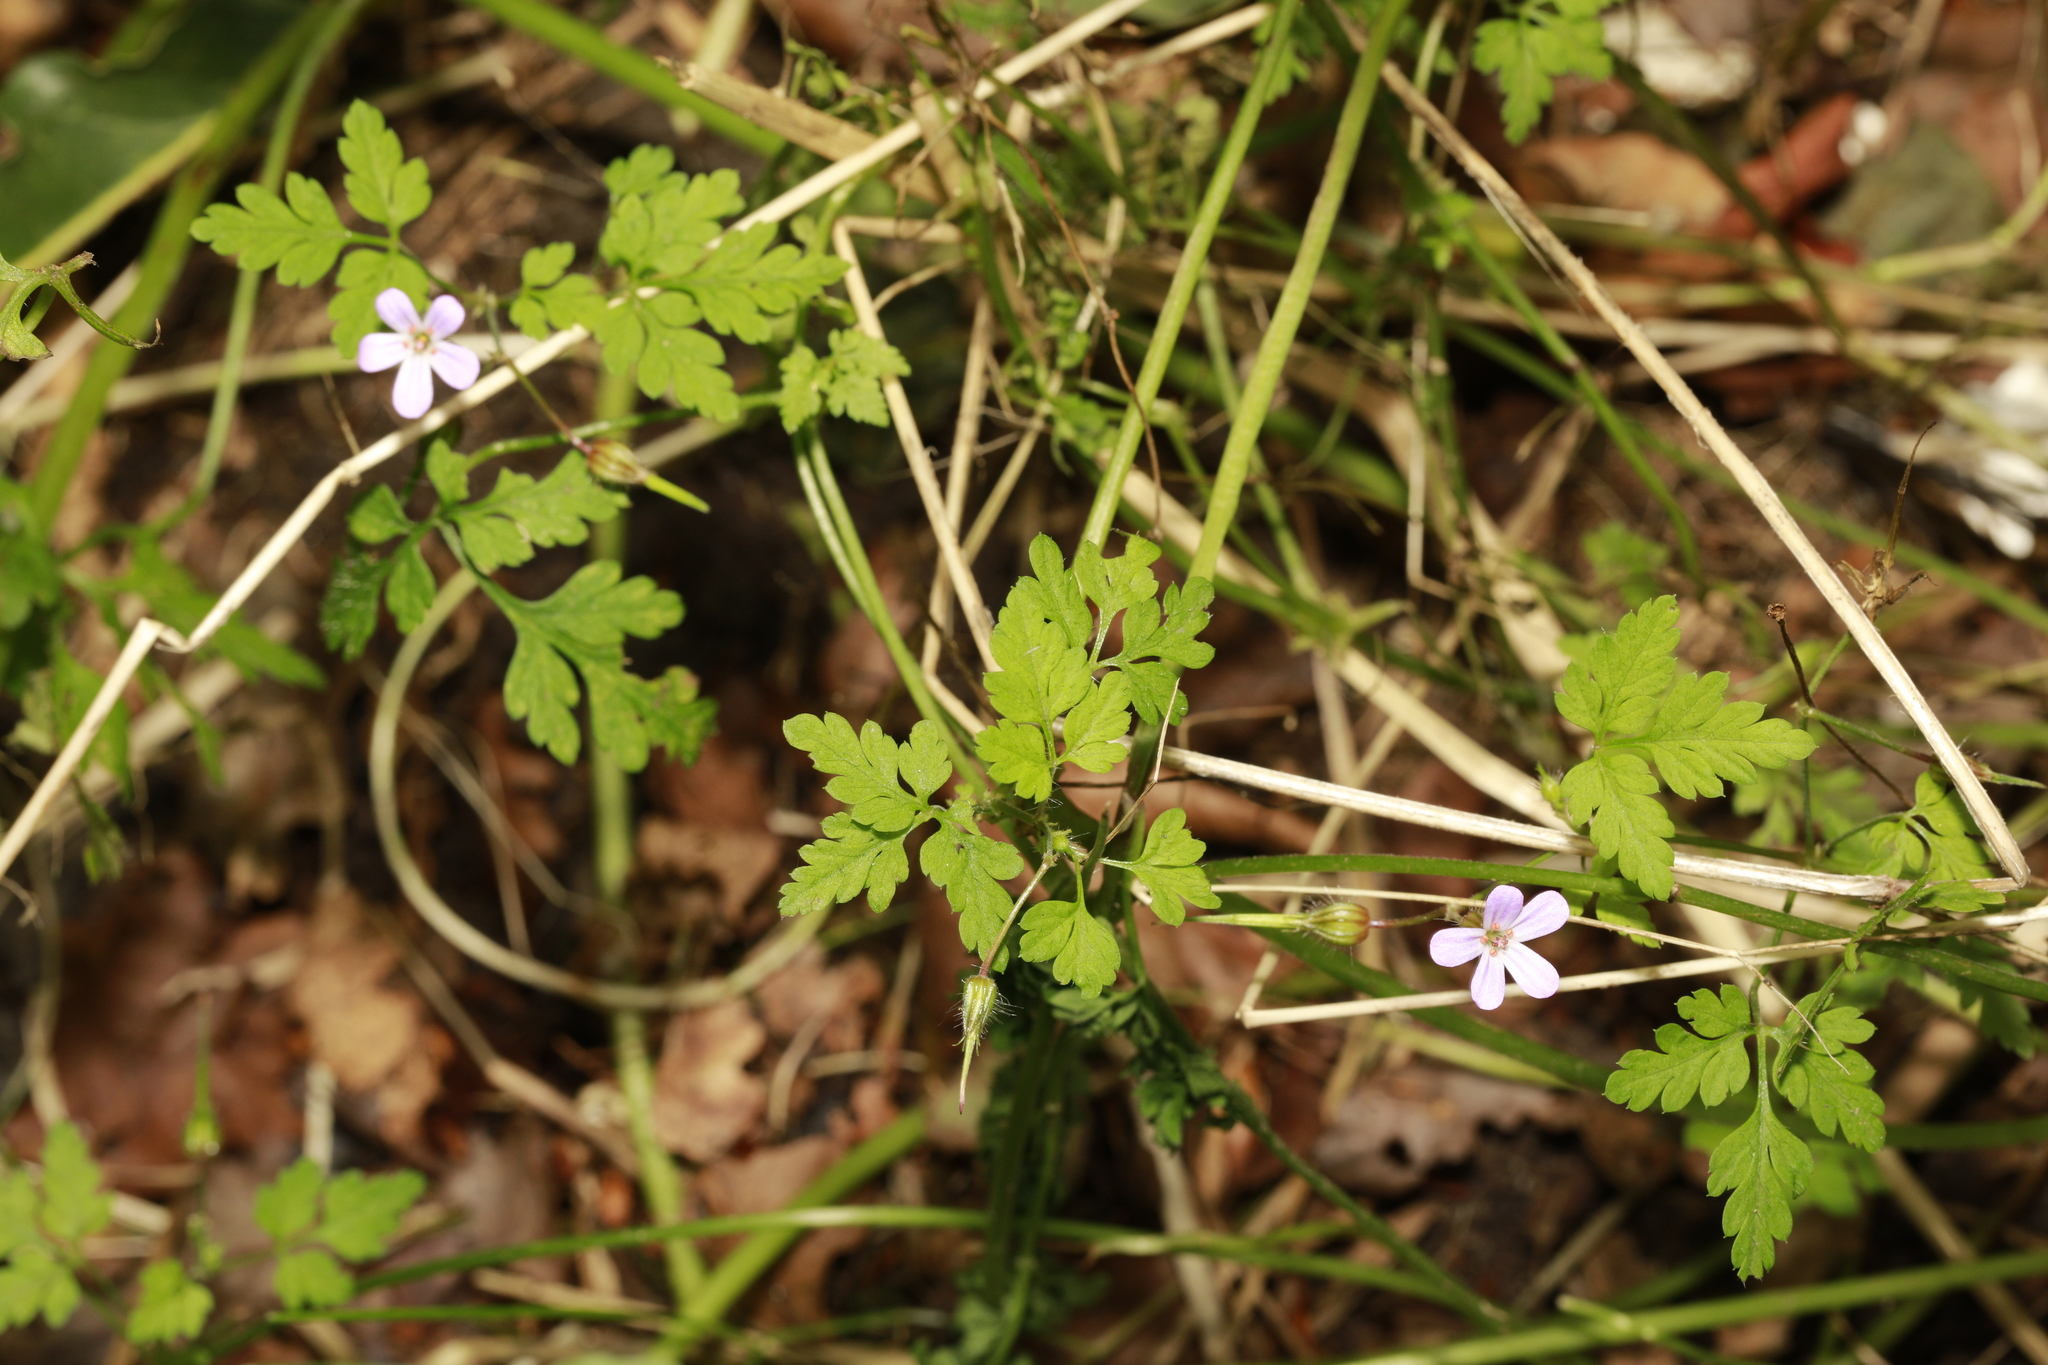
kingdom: Plantae
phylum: Tracheophyta
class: Magnoliopsida
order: Geraniales
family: Geraniaceae
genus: Geranium
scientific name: Geranium robertianum
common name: Herb-robert
